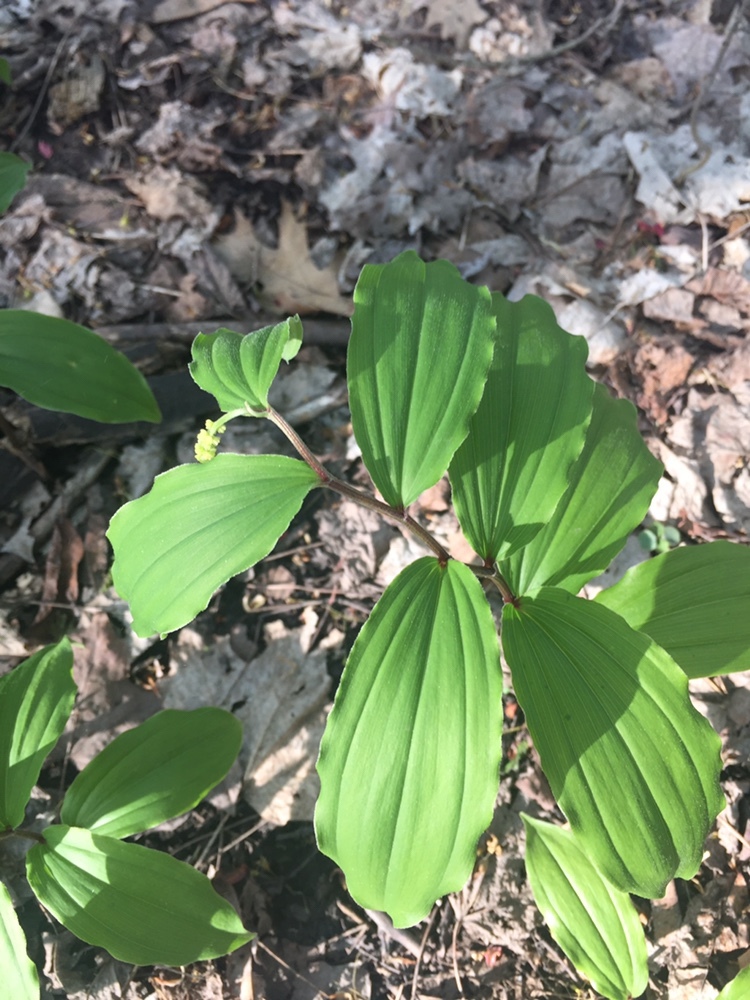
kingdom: Plantae
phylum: Tracheophyta
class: Liliopsida
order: Asparagales
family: Asparagaceae
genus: Maianthemum
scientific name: Maianthemum racemosum
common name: False spikenard
